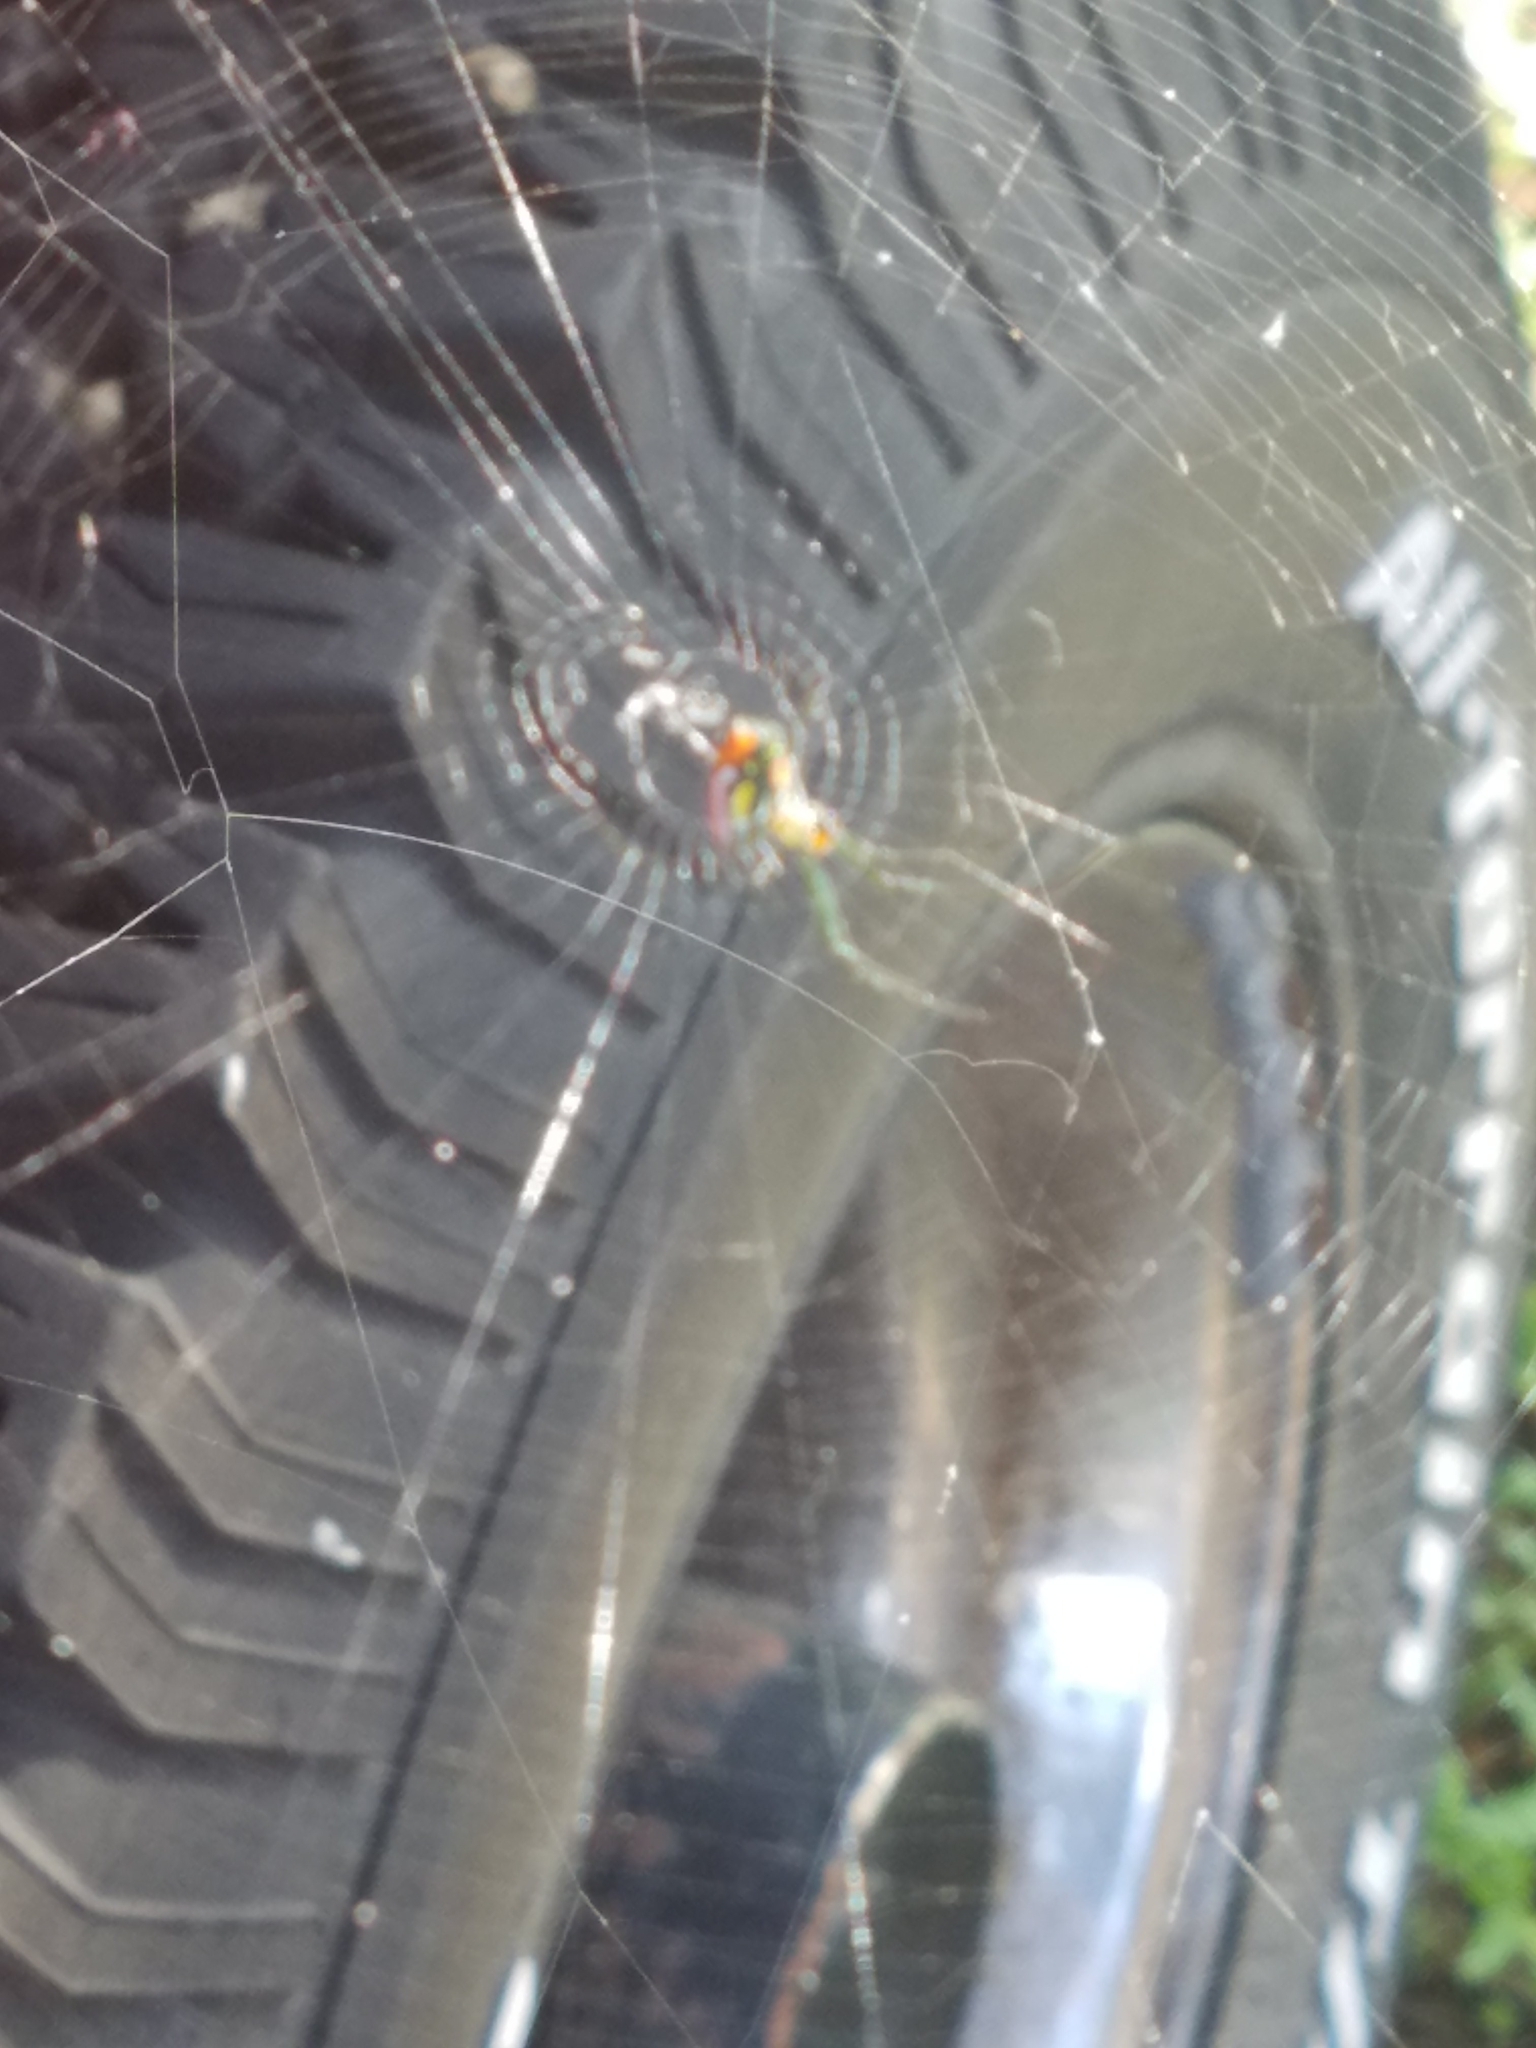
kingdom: Animalia
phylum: Arthropoda
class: Arachnida
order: Araneae
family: Tetragnathidae
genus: Leucauge
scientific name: Leucauge argyrobapta
